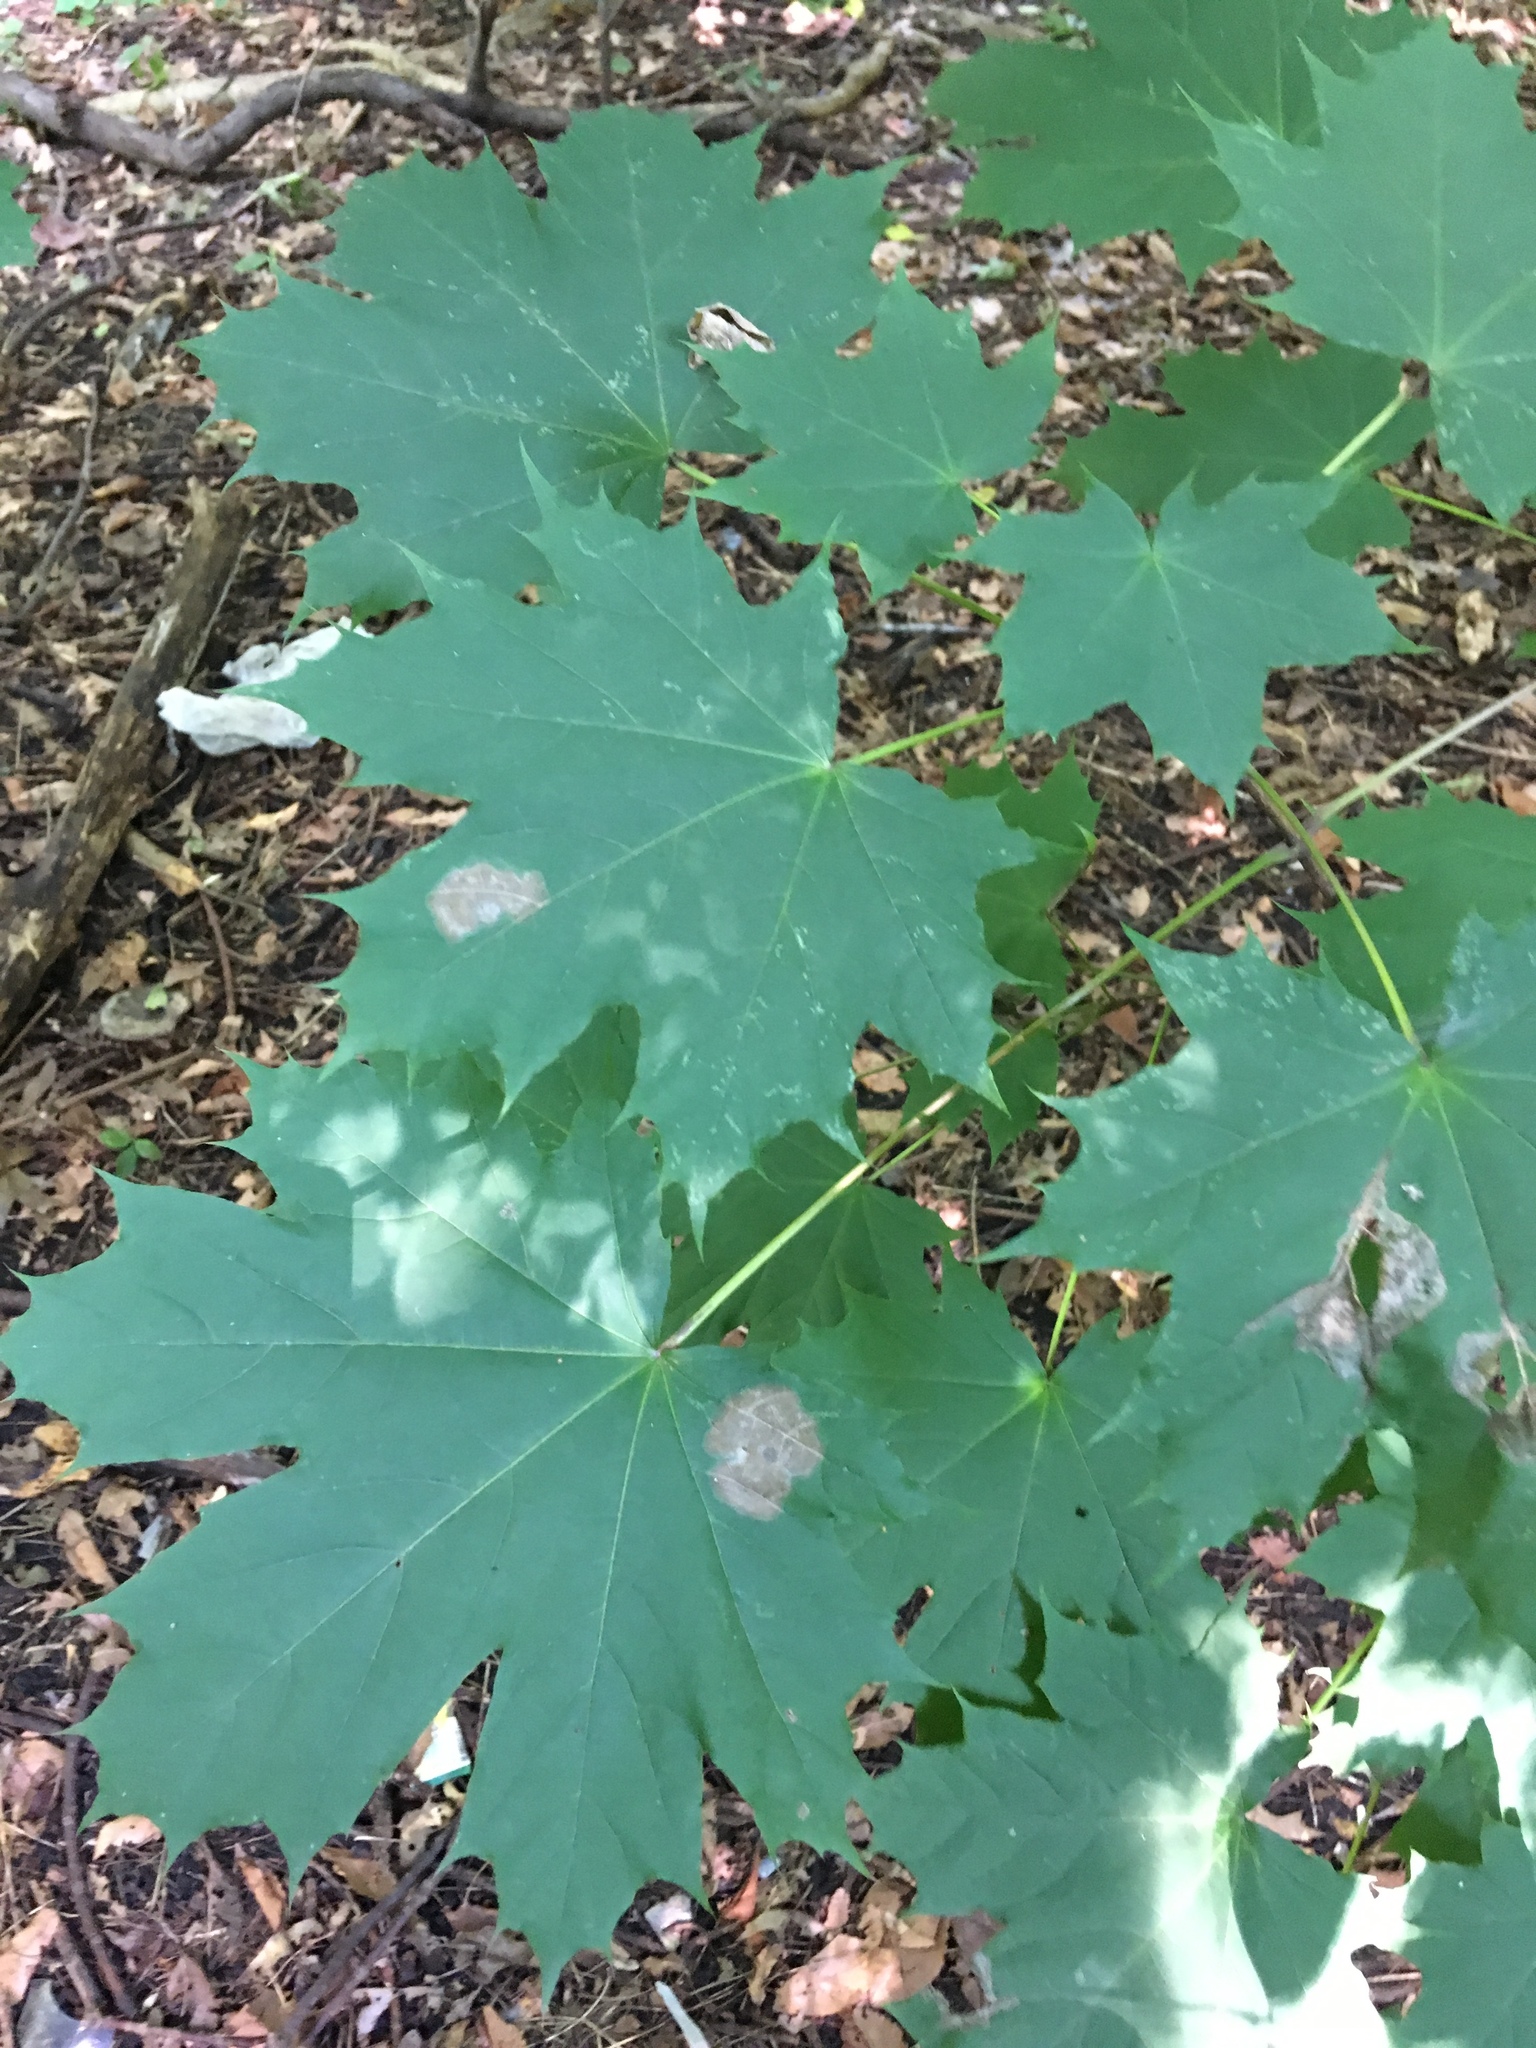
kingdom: Plantae
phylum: Tracheophyta
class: Magnoliopsida
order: Sapindales
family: Sapindaceae
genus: Acer
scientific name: Acer platanoides
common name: Norway maple
